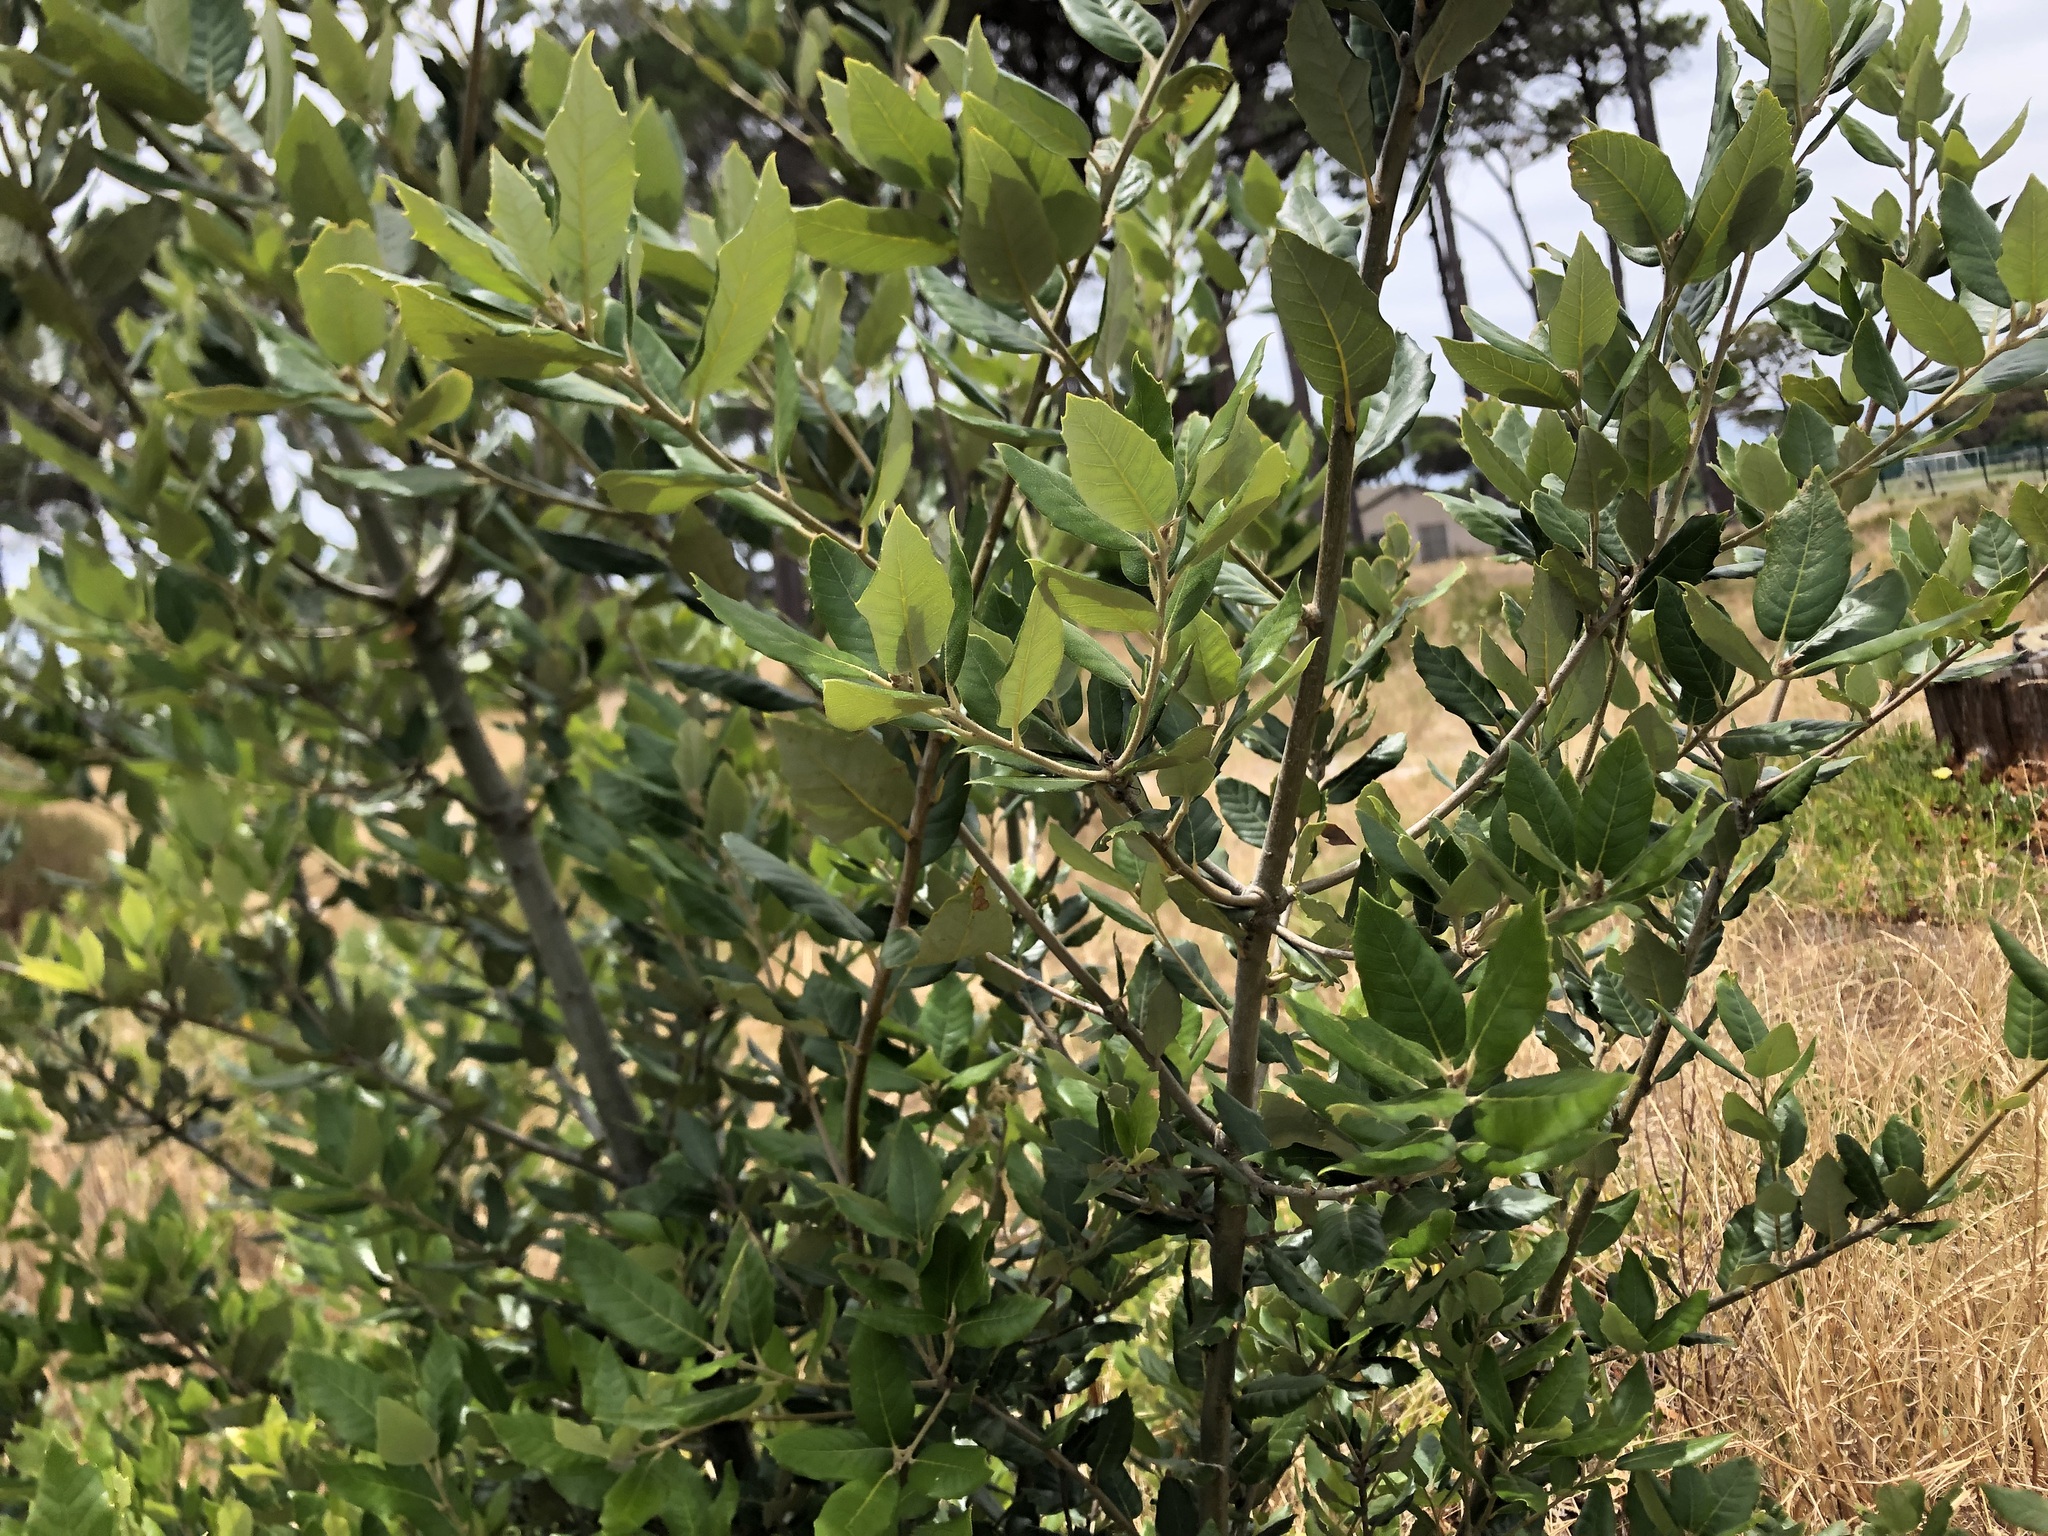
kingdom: Plantae
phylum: Tracheophyta
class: Magnoliopsida
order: Fagales
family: Fagaceae
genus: Quercus
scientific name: Quercus ilex
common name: Evergreen oak
